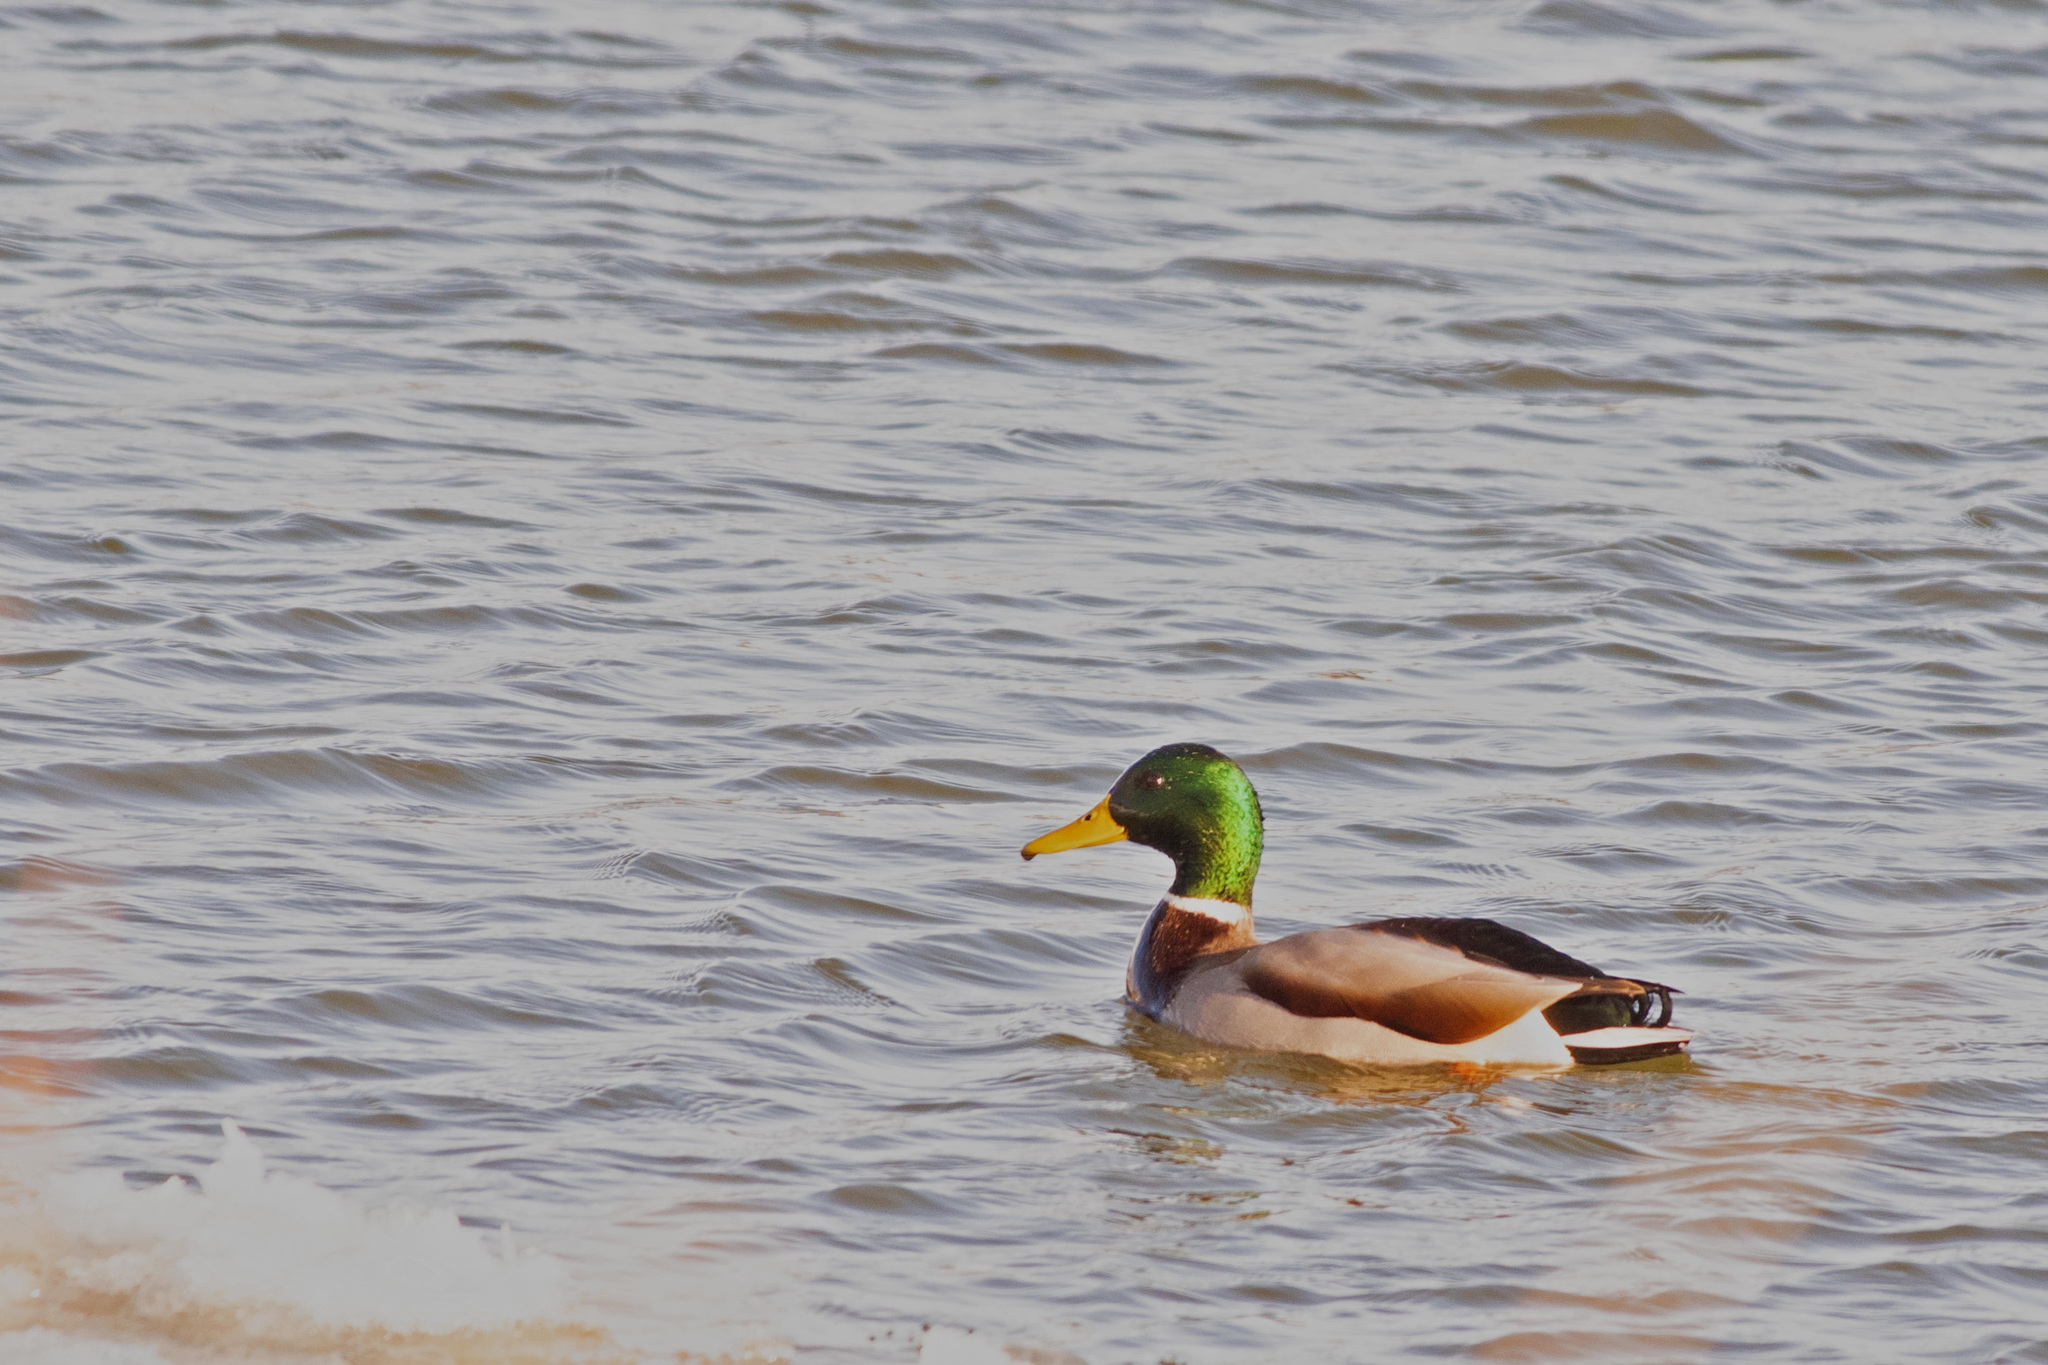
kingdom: Animalia
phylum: Chordata
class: Aves
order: Anseriformes
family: Anatidae
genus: Anas
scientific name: Anas platyrhynchos
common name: Mallard
